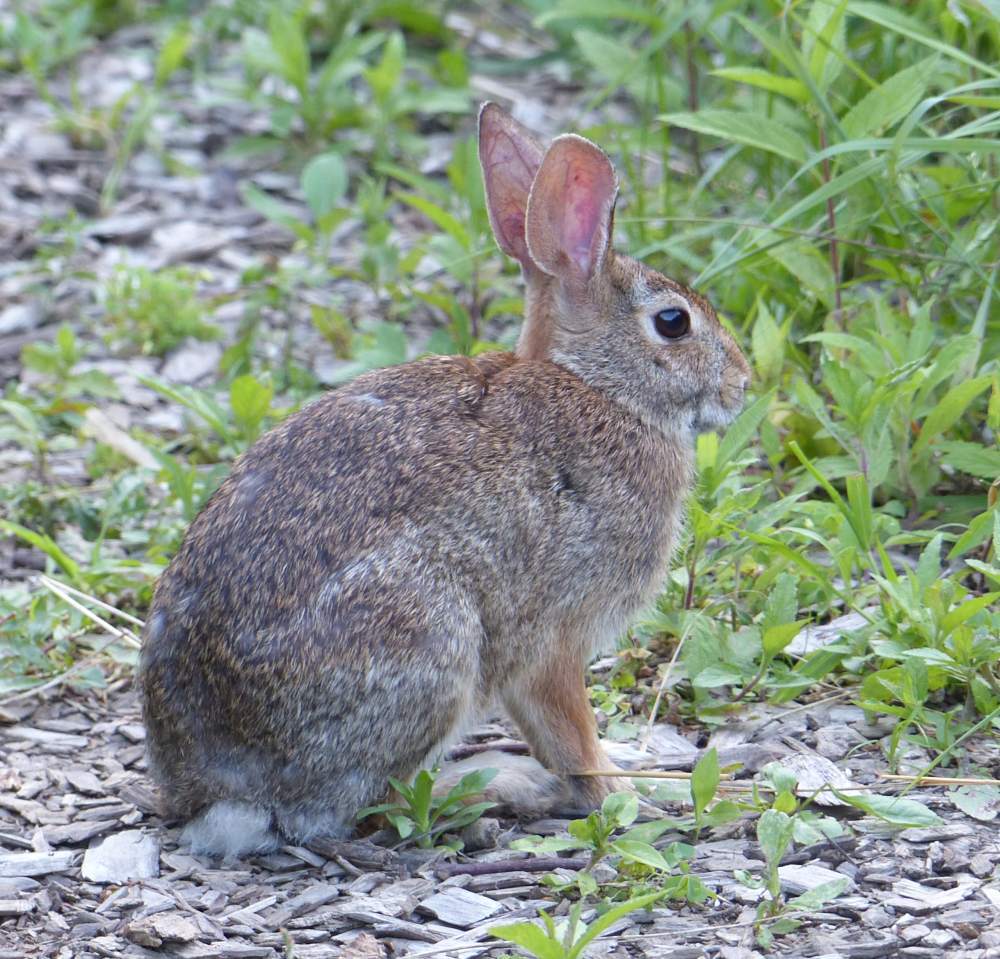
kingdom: Animalia
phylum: Chordata
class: Mammalia
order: Lagomorpha
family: Leporidae
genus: Sylvilagus
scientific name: Sylvilagus floridanus
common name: Eastern cottontail
